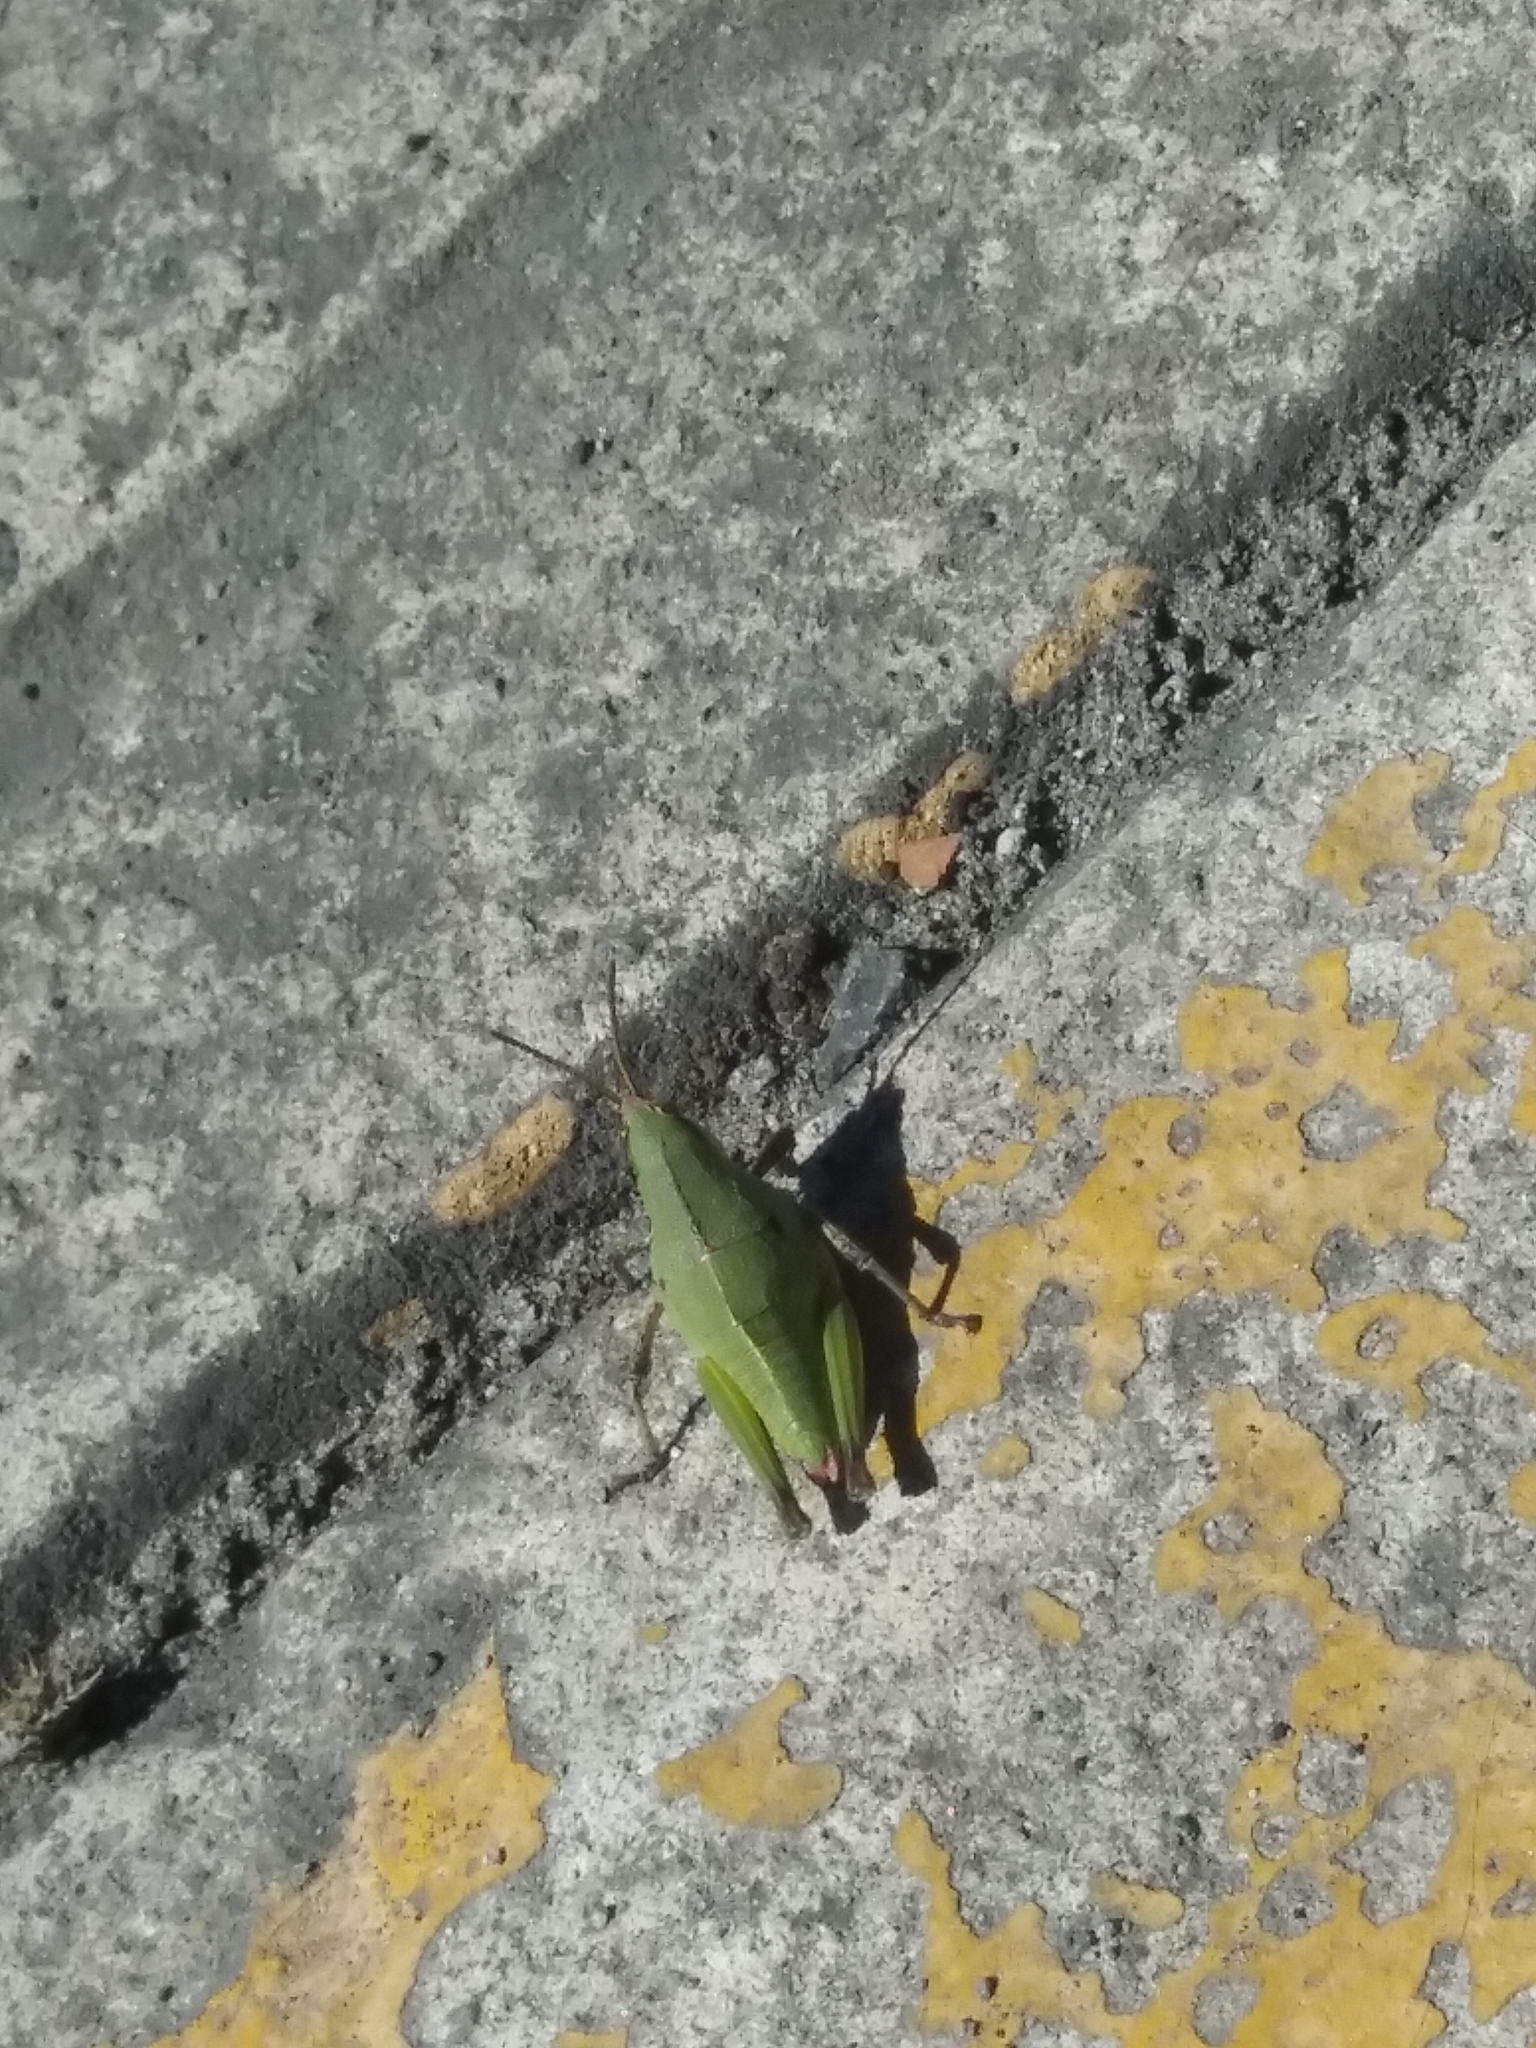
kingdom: Animalia
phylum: Arthropoda
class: Insecta
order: Orthoptera
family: Pyrgomorphidae
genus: Sphenarium
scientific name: Sphenarium purpurascens
